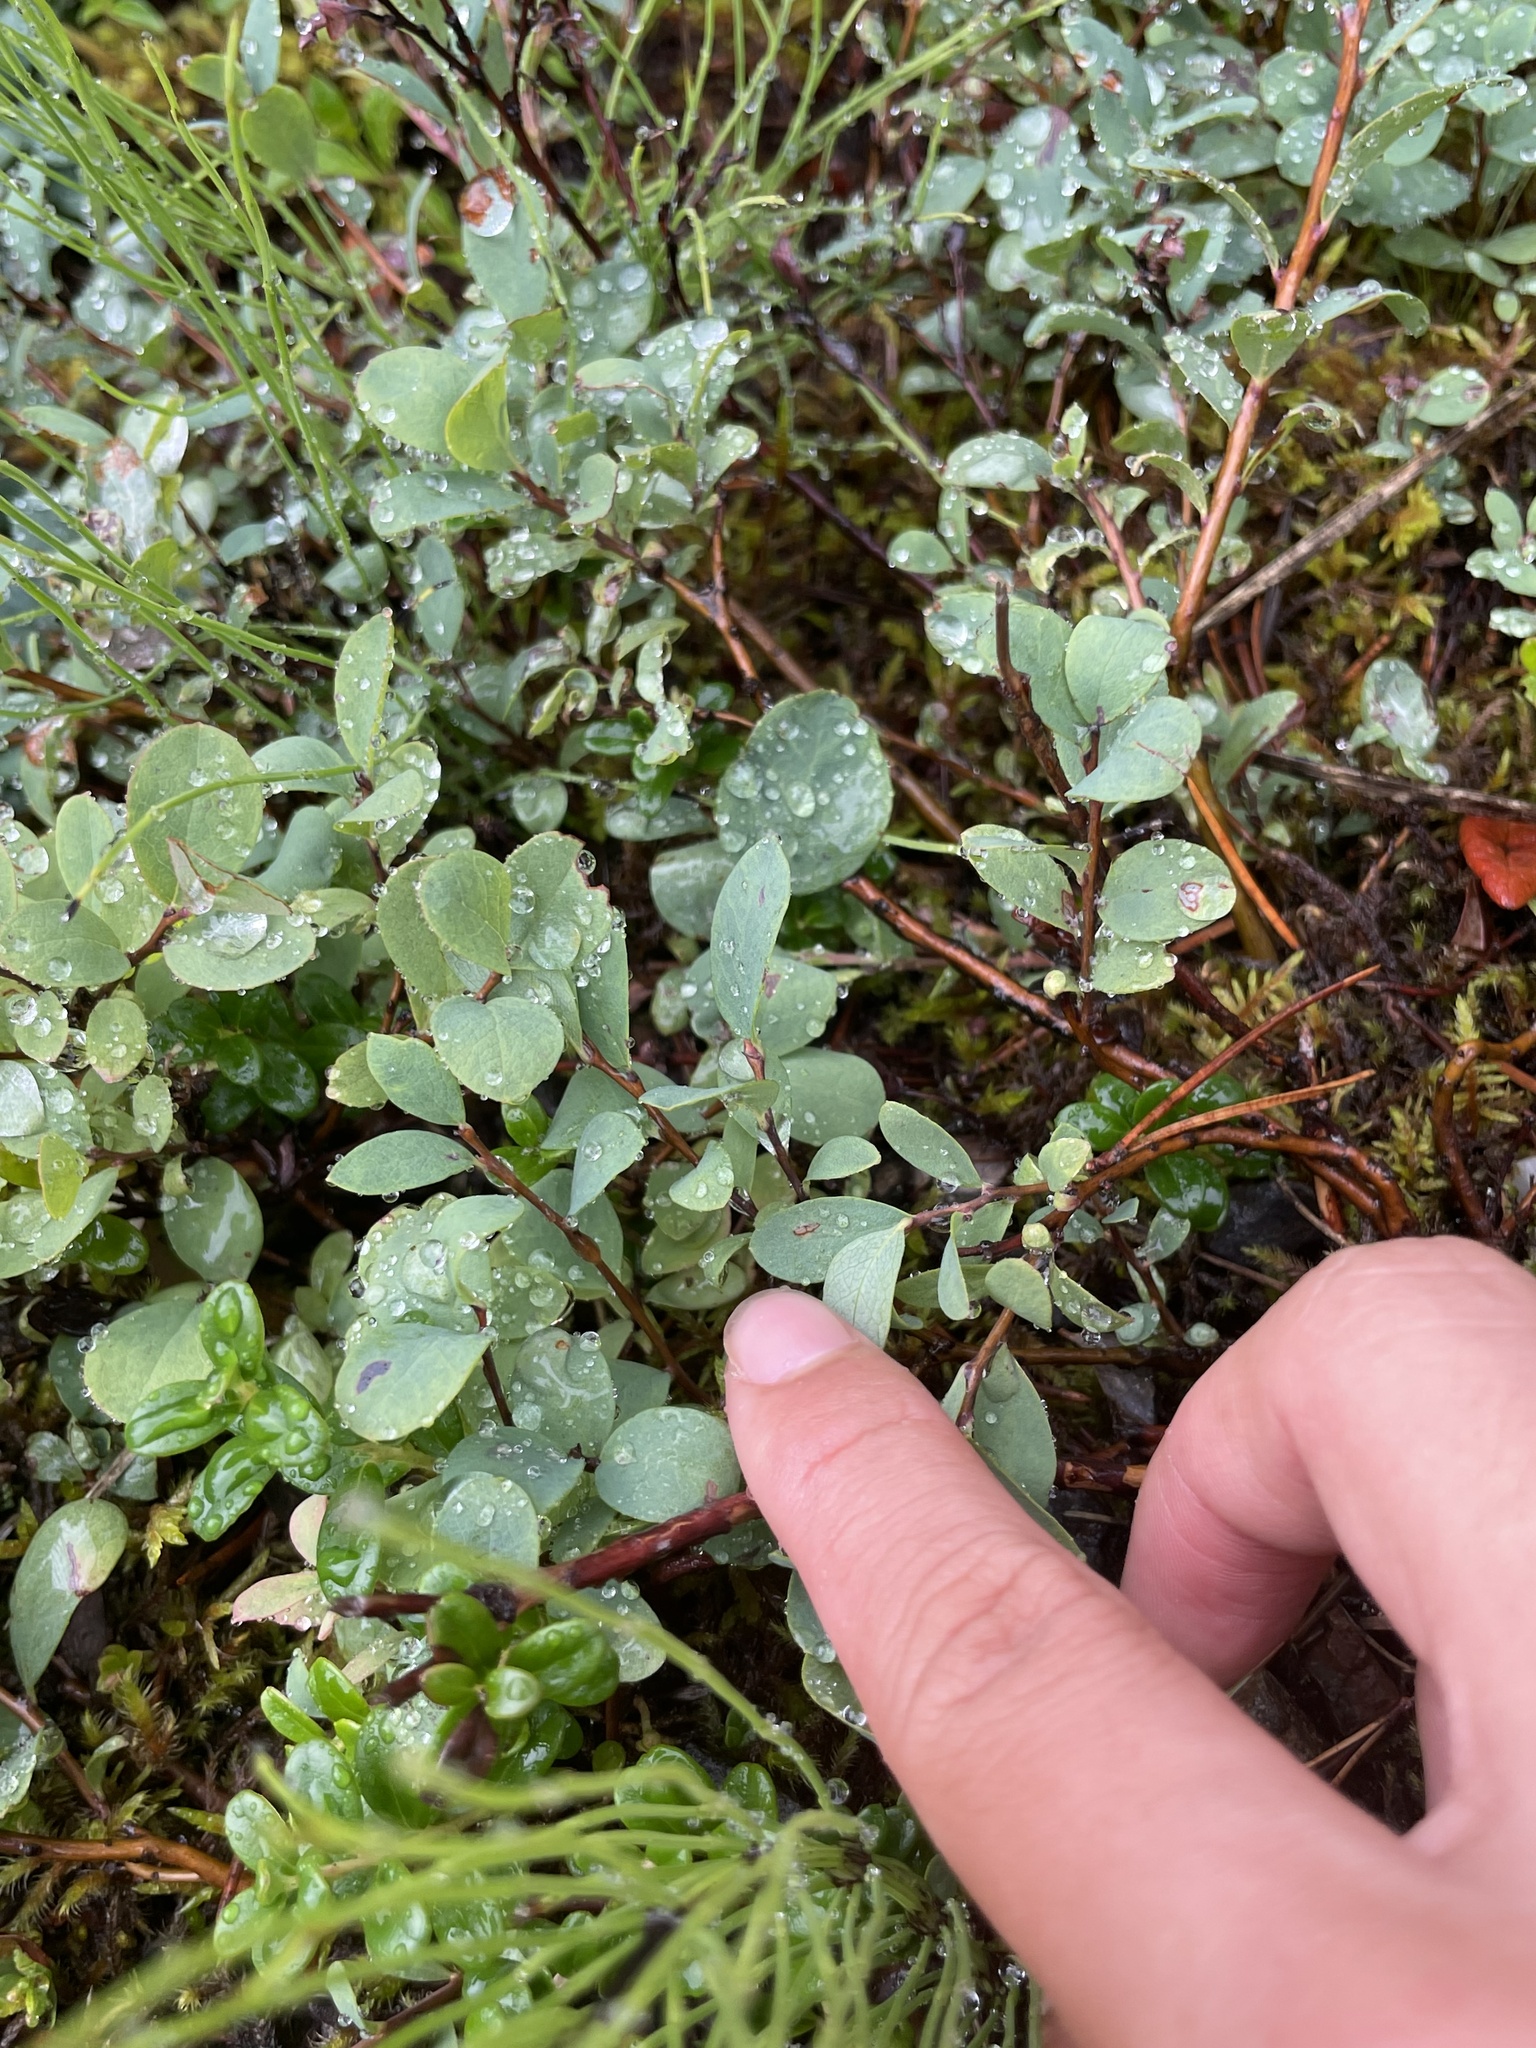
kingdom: Plantae
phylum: Tracheophyta
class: Magnoliopsida
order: Ericales
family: Ericaceae
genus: Vaccinium
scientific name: Vaccinium uliginosum
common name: Bog bilberry
